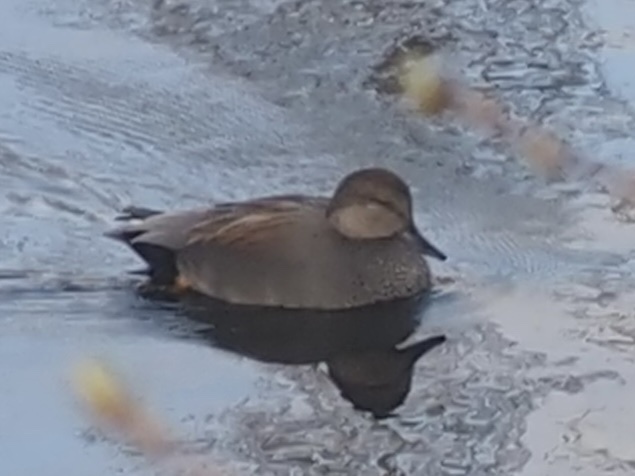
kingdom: Animalia
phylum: Chordata
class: Aves
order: Anseriformes
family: Anatidae
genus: Mareca
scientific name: Mareca strepera
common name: Gadwall
